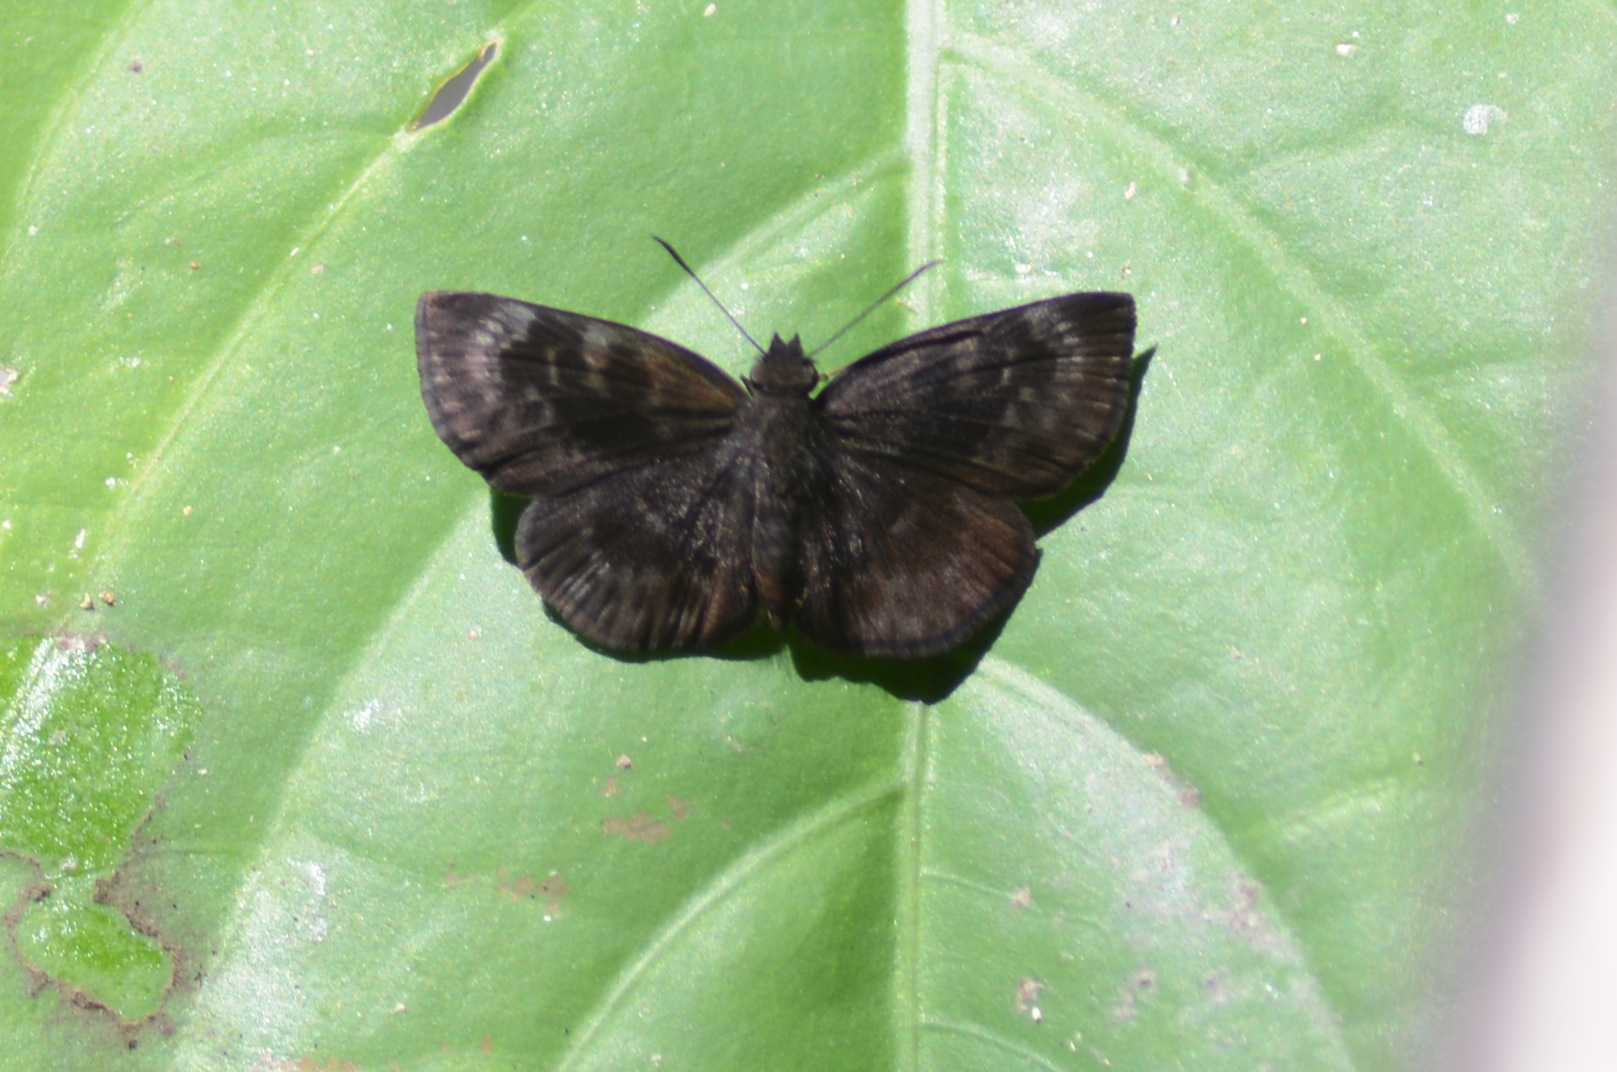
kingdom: Animalia
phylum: Arthropoda
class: Insecta
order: Lepidoptera
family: Hesperiidae
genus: Ouleus
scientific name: Ouleus fridericus
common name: Fridericus spreadwing
